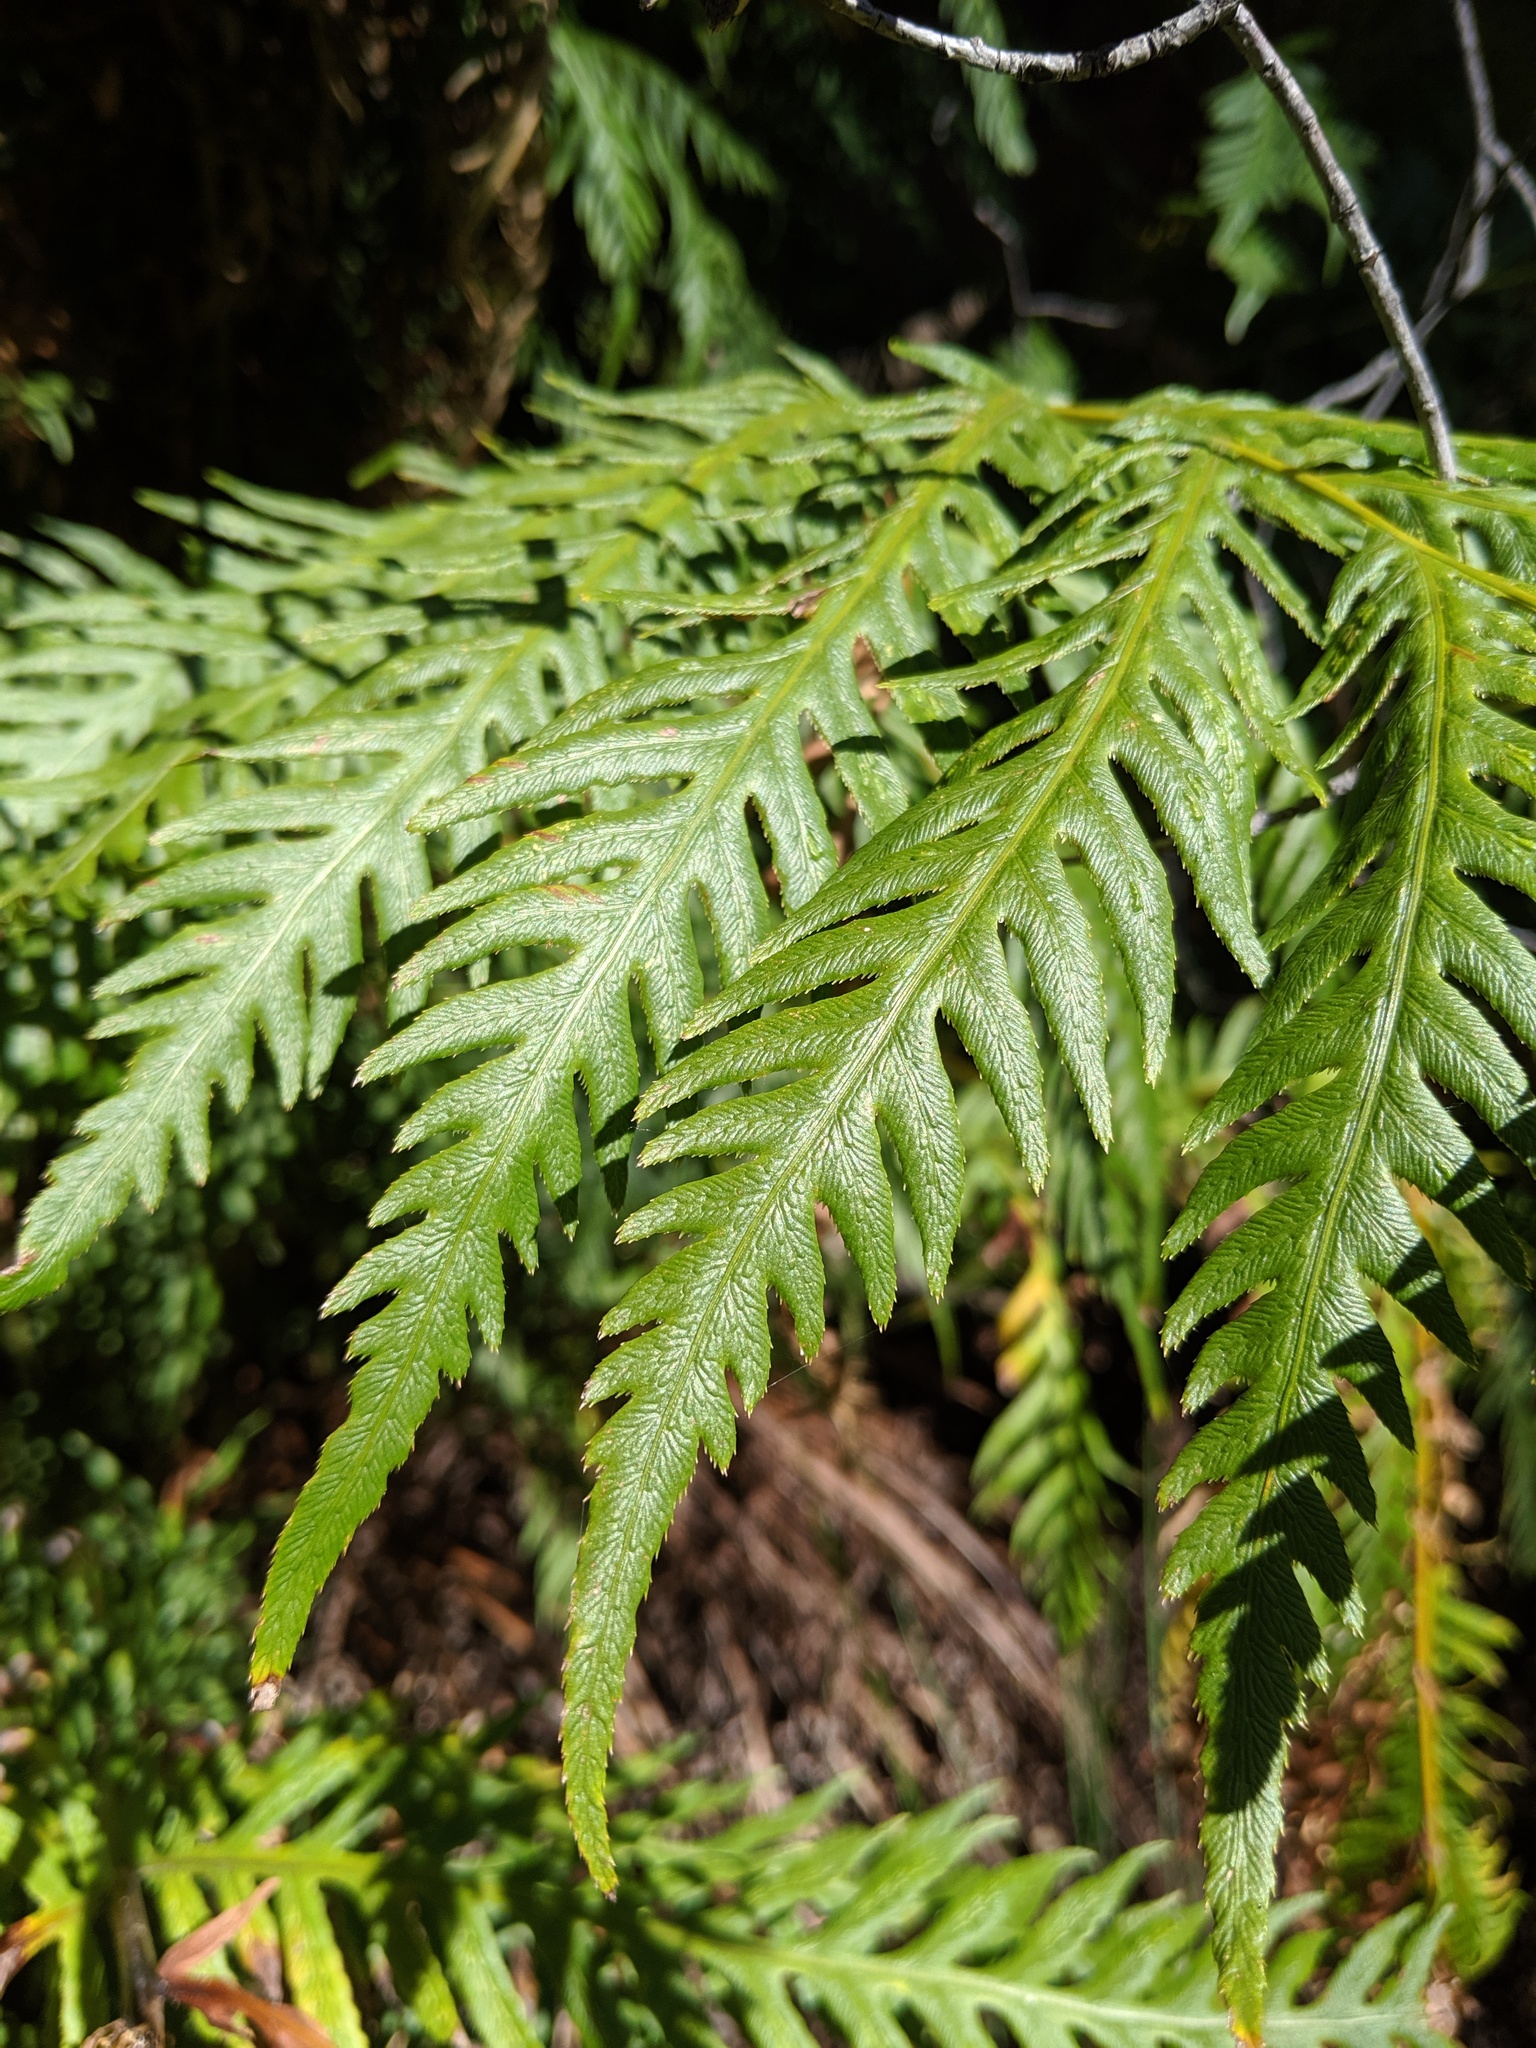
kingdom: Plantae
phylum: Tracheophyta
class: Polypodiopsida
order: Polypodiales
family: Blechnaceae
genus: Woodwardia
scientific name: Woodwardia fimbriata
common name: Giant chain fern
